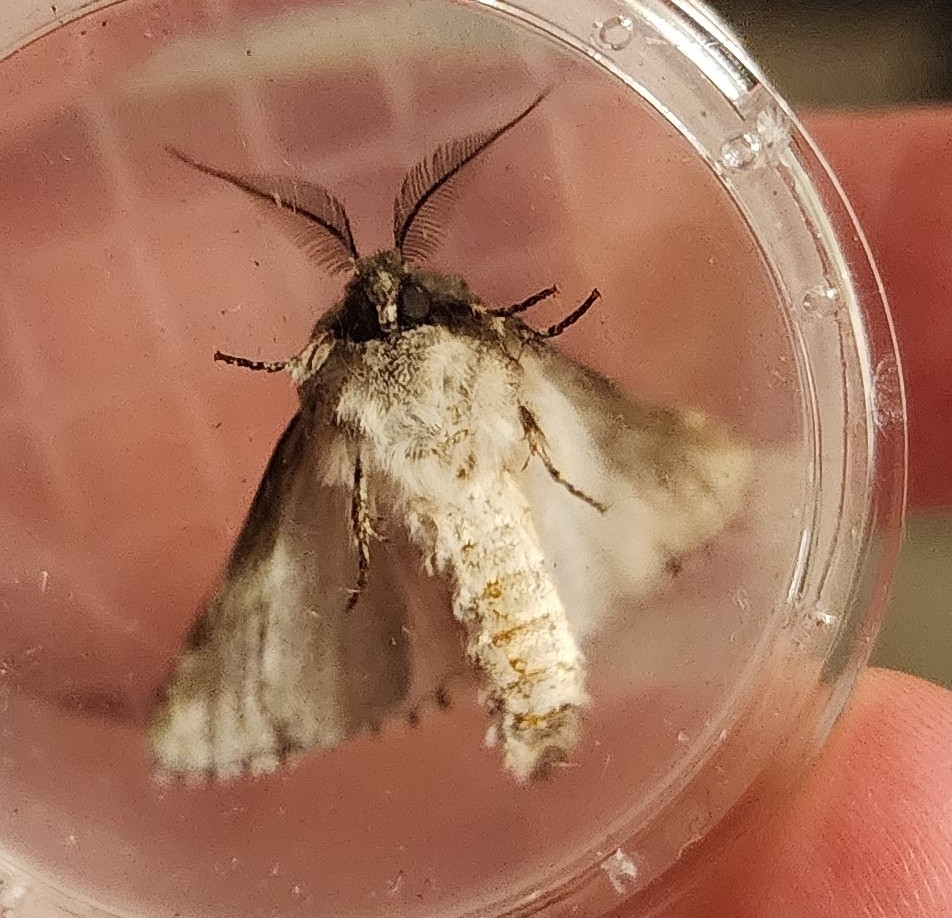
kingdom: Animalia
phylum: Arthropoda
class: Insecta
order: Lepidoptera
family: Notodontidae
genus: Litodonta
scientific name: Litodonta hydromeli
